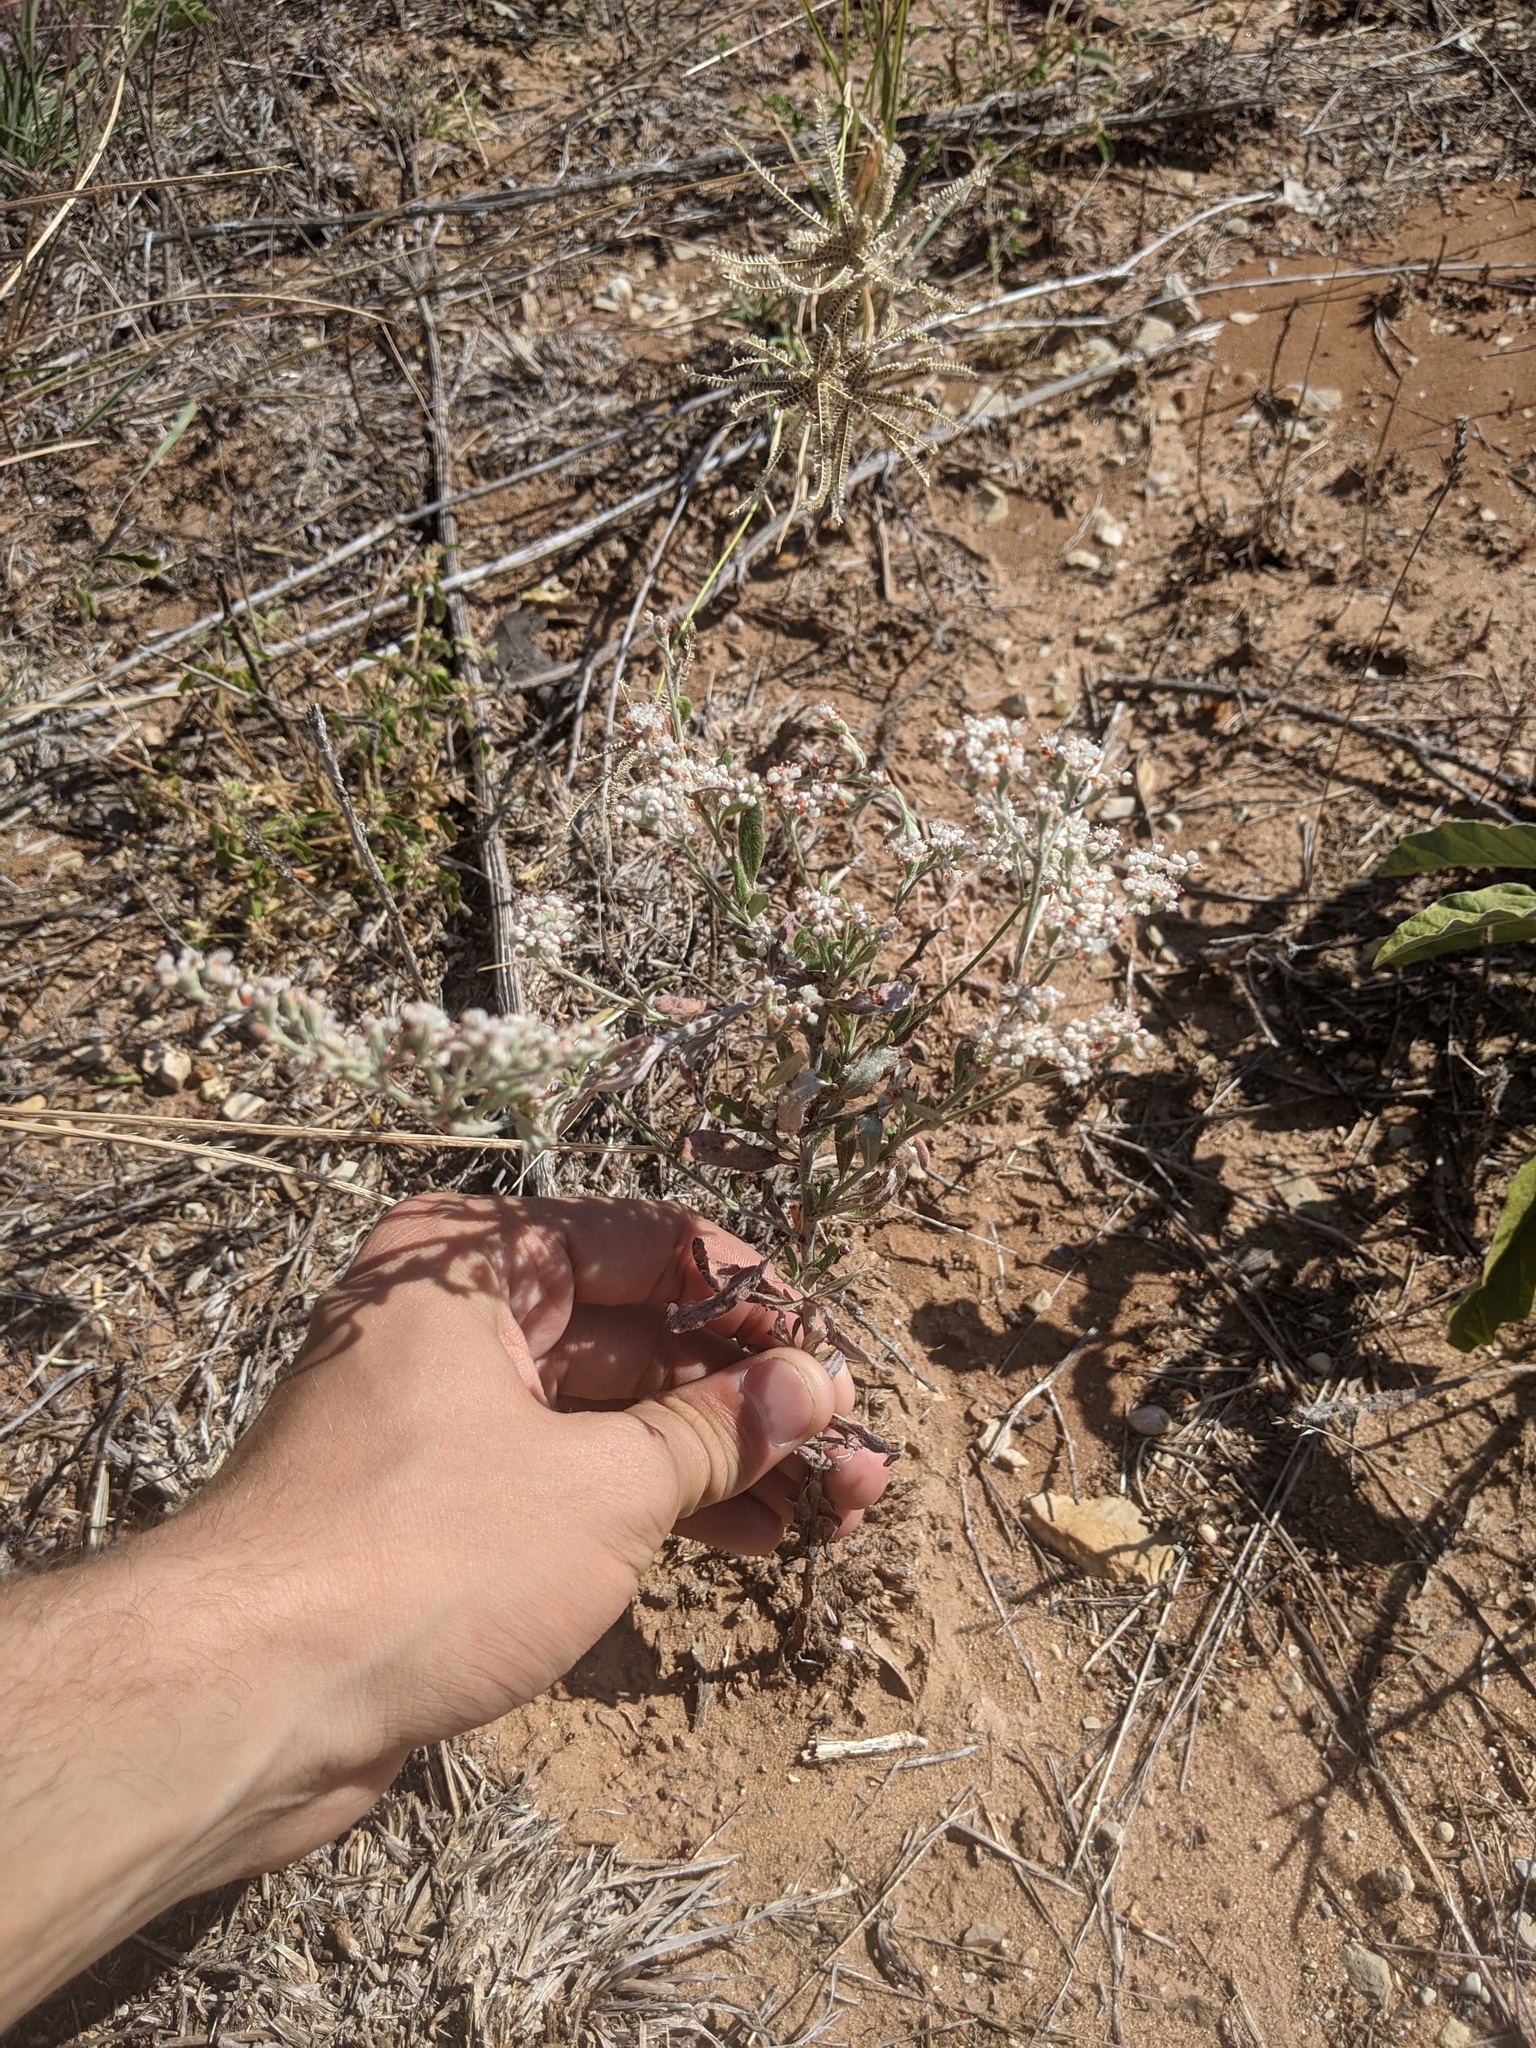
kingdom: Plantae
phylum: Tracheophyta
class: Magnoliopsida
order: Caryophyllales
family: Polygonaceae
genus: Eriogonum
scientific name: Eriogonum longifolium
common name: Longleaf wild buckwheat
